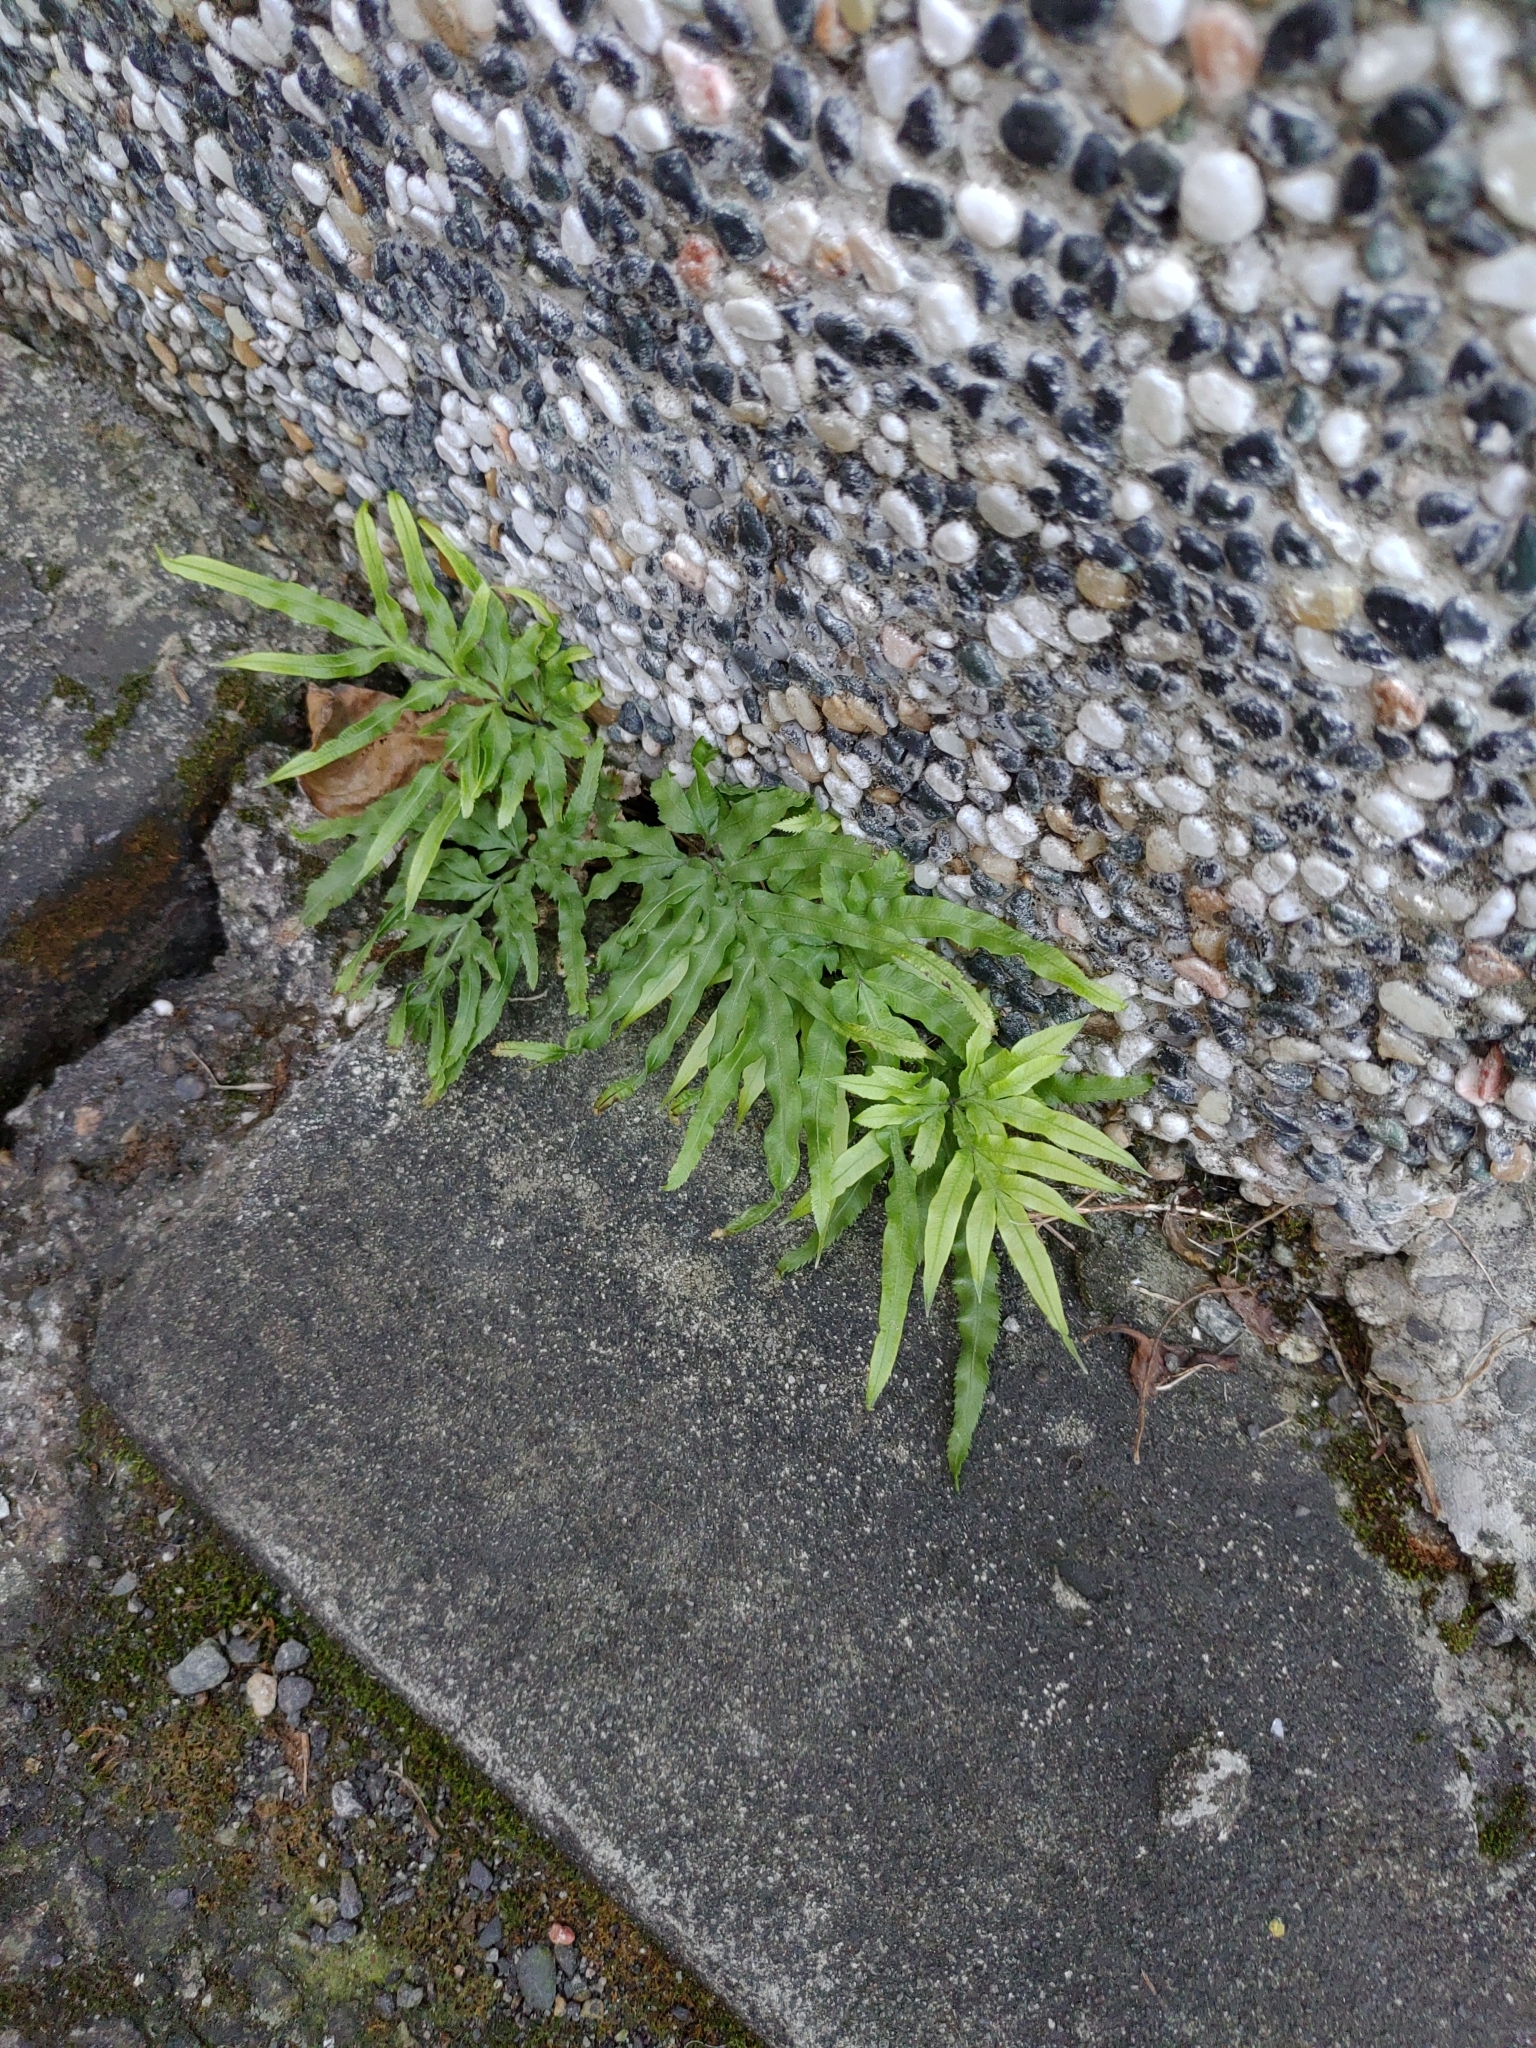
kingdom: Plantae
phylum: Tracheophyta
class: Polypodiopsida
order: Polypodiales
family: Pteridaceae
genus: Pteris
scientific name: Pteris multifida
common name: Spider brake
